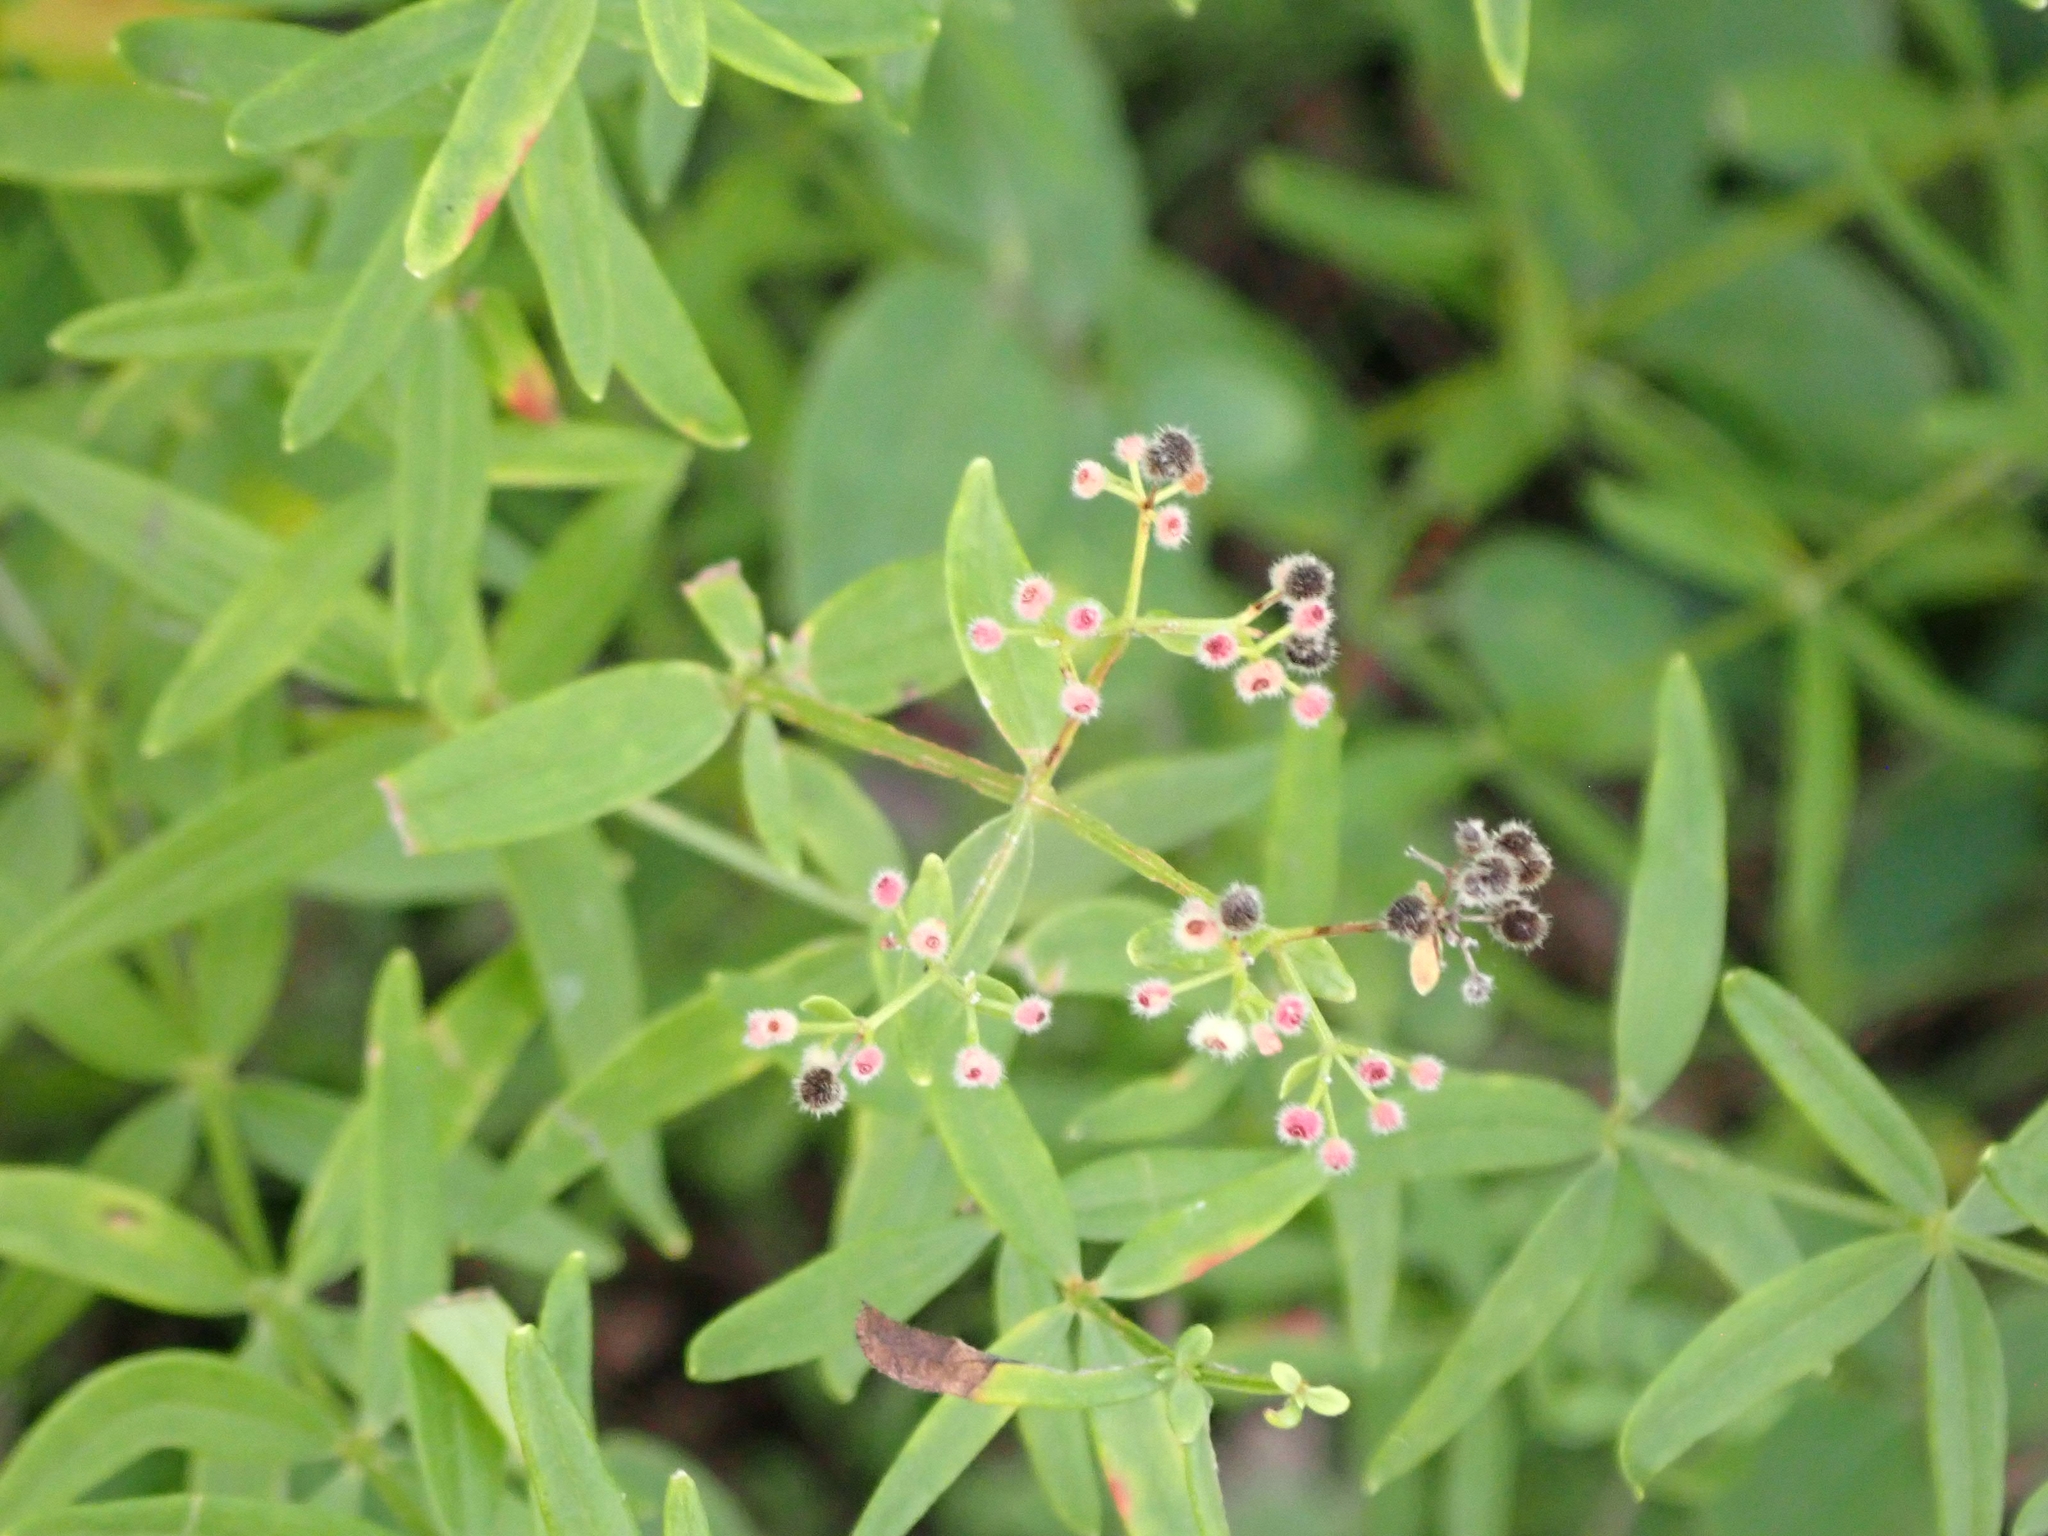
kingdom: Plantae
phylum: Tracheophyta
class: Magnoliopsida
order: Gentianales
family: Rubiaceae
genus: Galium
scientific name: Galium boreale
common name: Northern bedstraw
